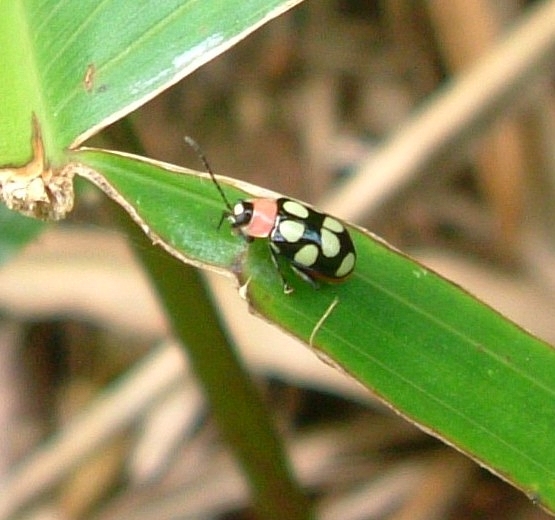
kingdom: Animalia
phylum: Arthropoda
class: Insecta
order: Coleoptera
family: Chrysomelidae
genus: Omophoita
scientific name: Omophoita aequinoctialis
